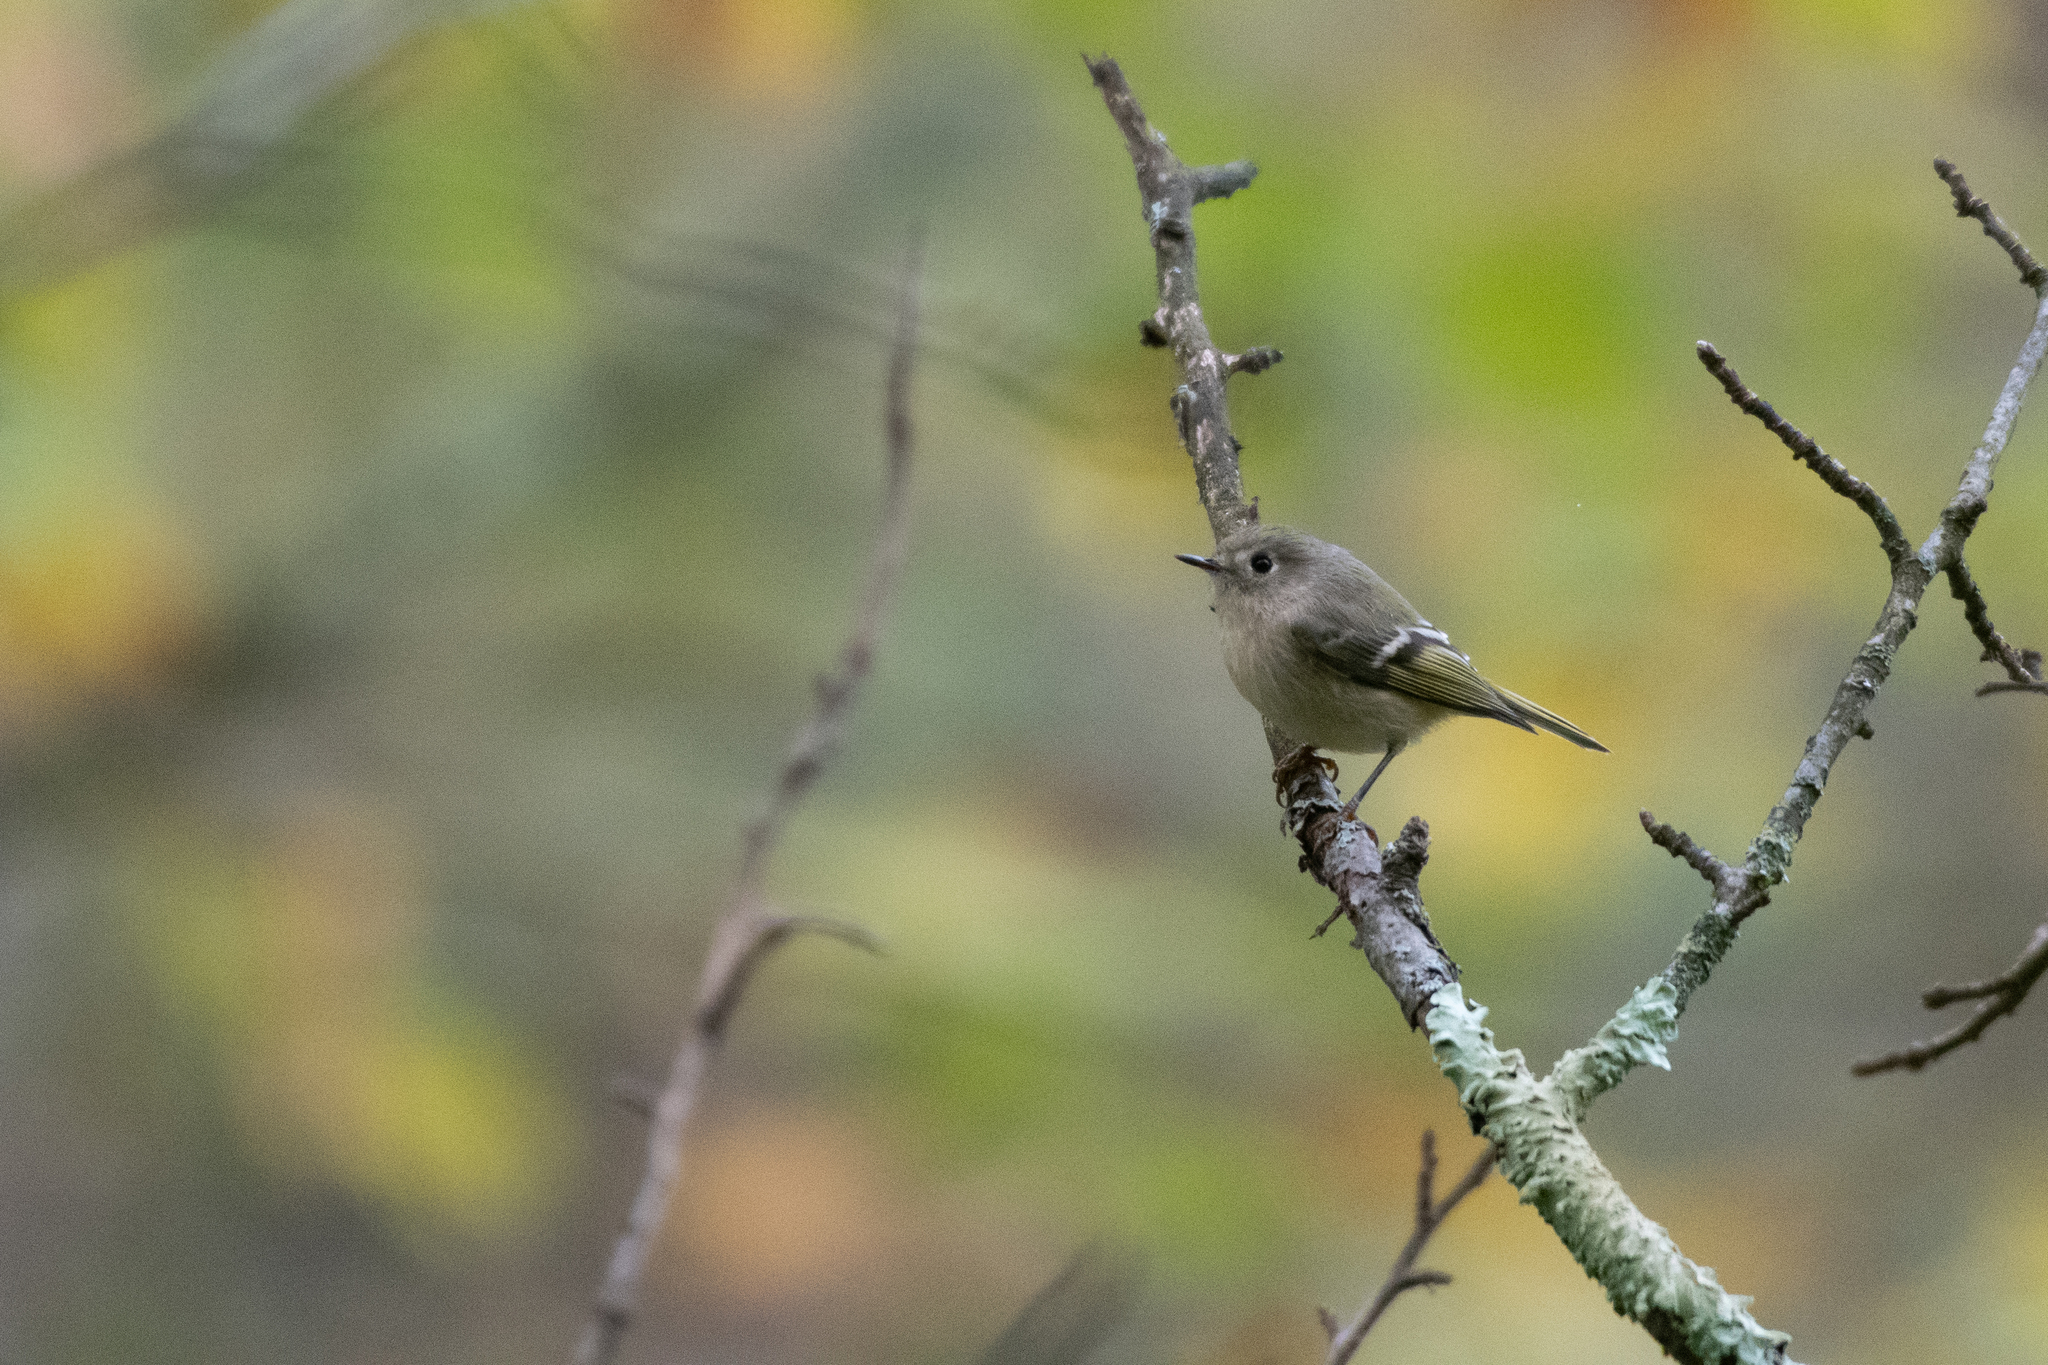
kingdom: Animalia
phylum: Chordata
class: Aves
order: Passeriformes
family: Regulidae
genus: Regulus
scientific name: Regulus calendula
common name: Ruby-crowned kinglet
